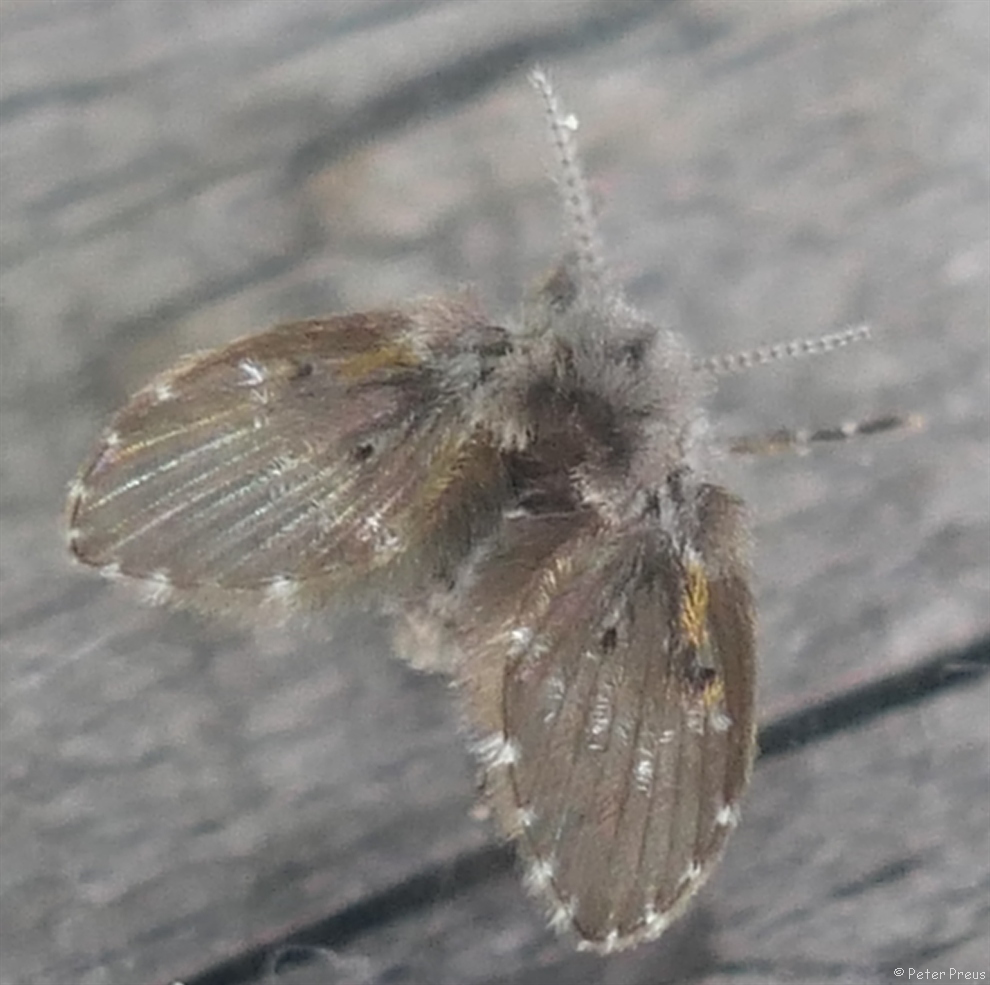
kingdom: Animalia
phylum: Arthropoda
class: Insecta
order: Diptera
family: Psychodidae
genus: Clogmia
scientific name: Clogmia albipunctatus
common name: White-spotted moth fly
